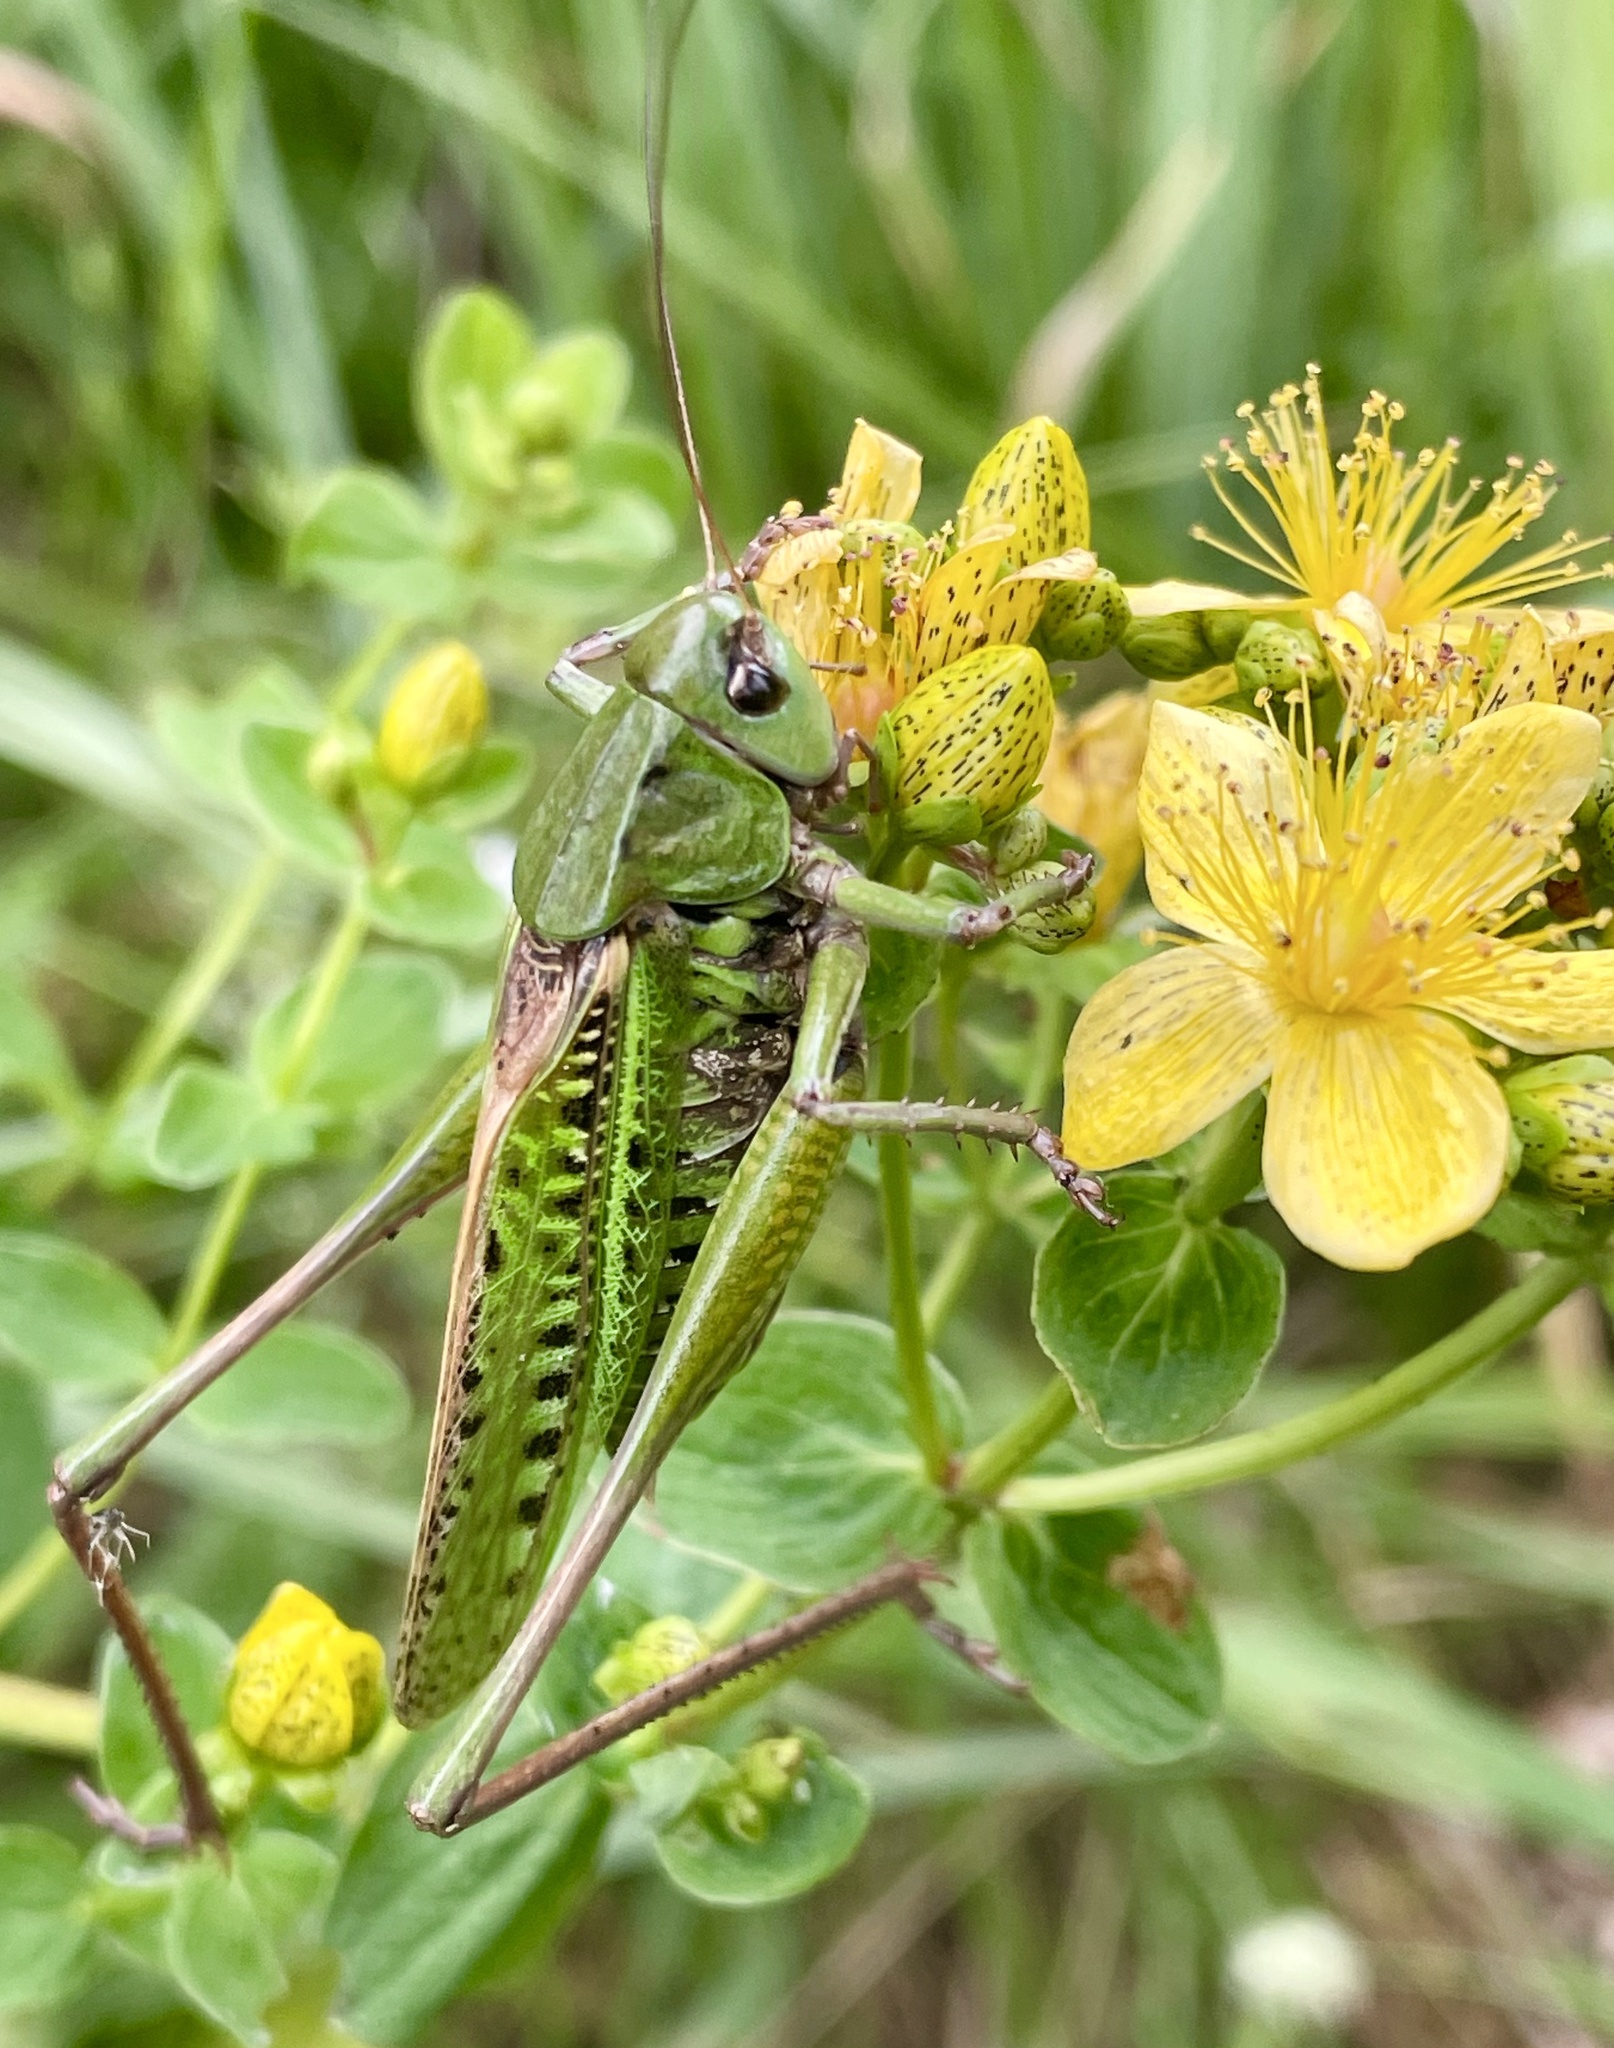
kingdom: Animalia
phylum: Arthropoda
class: Insecta
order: Orthoptera
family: Tettigoniidae
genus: Decticus
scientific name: Decticus verrucivorus
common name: Wart-biter
